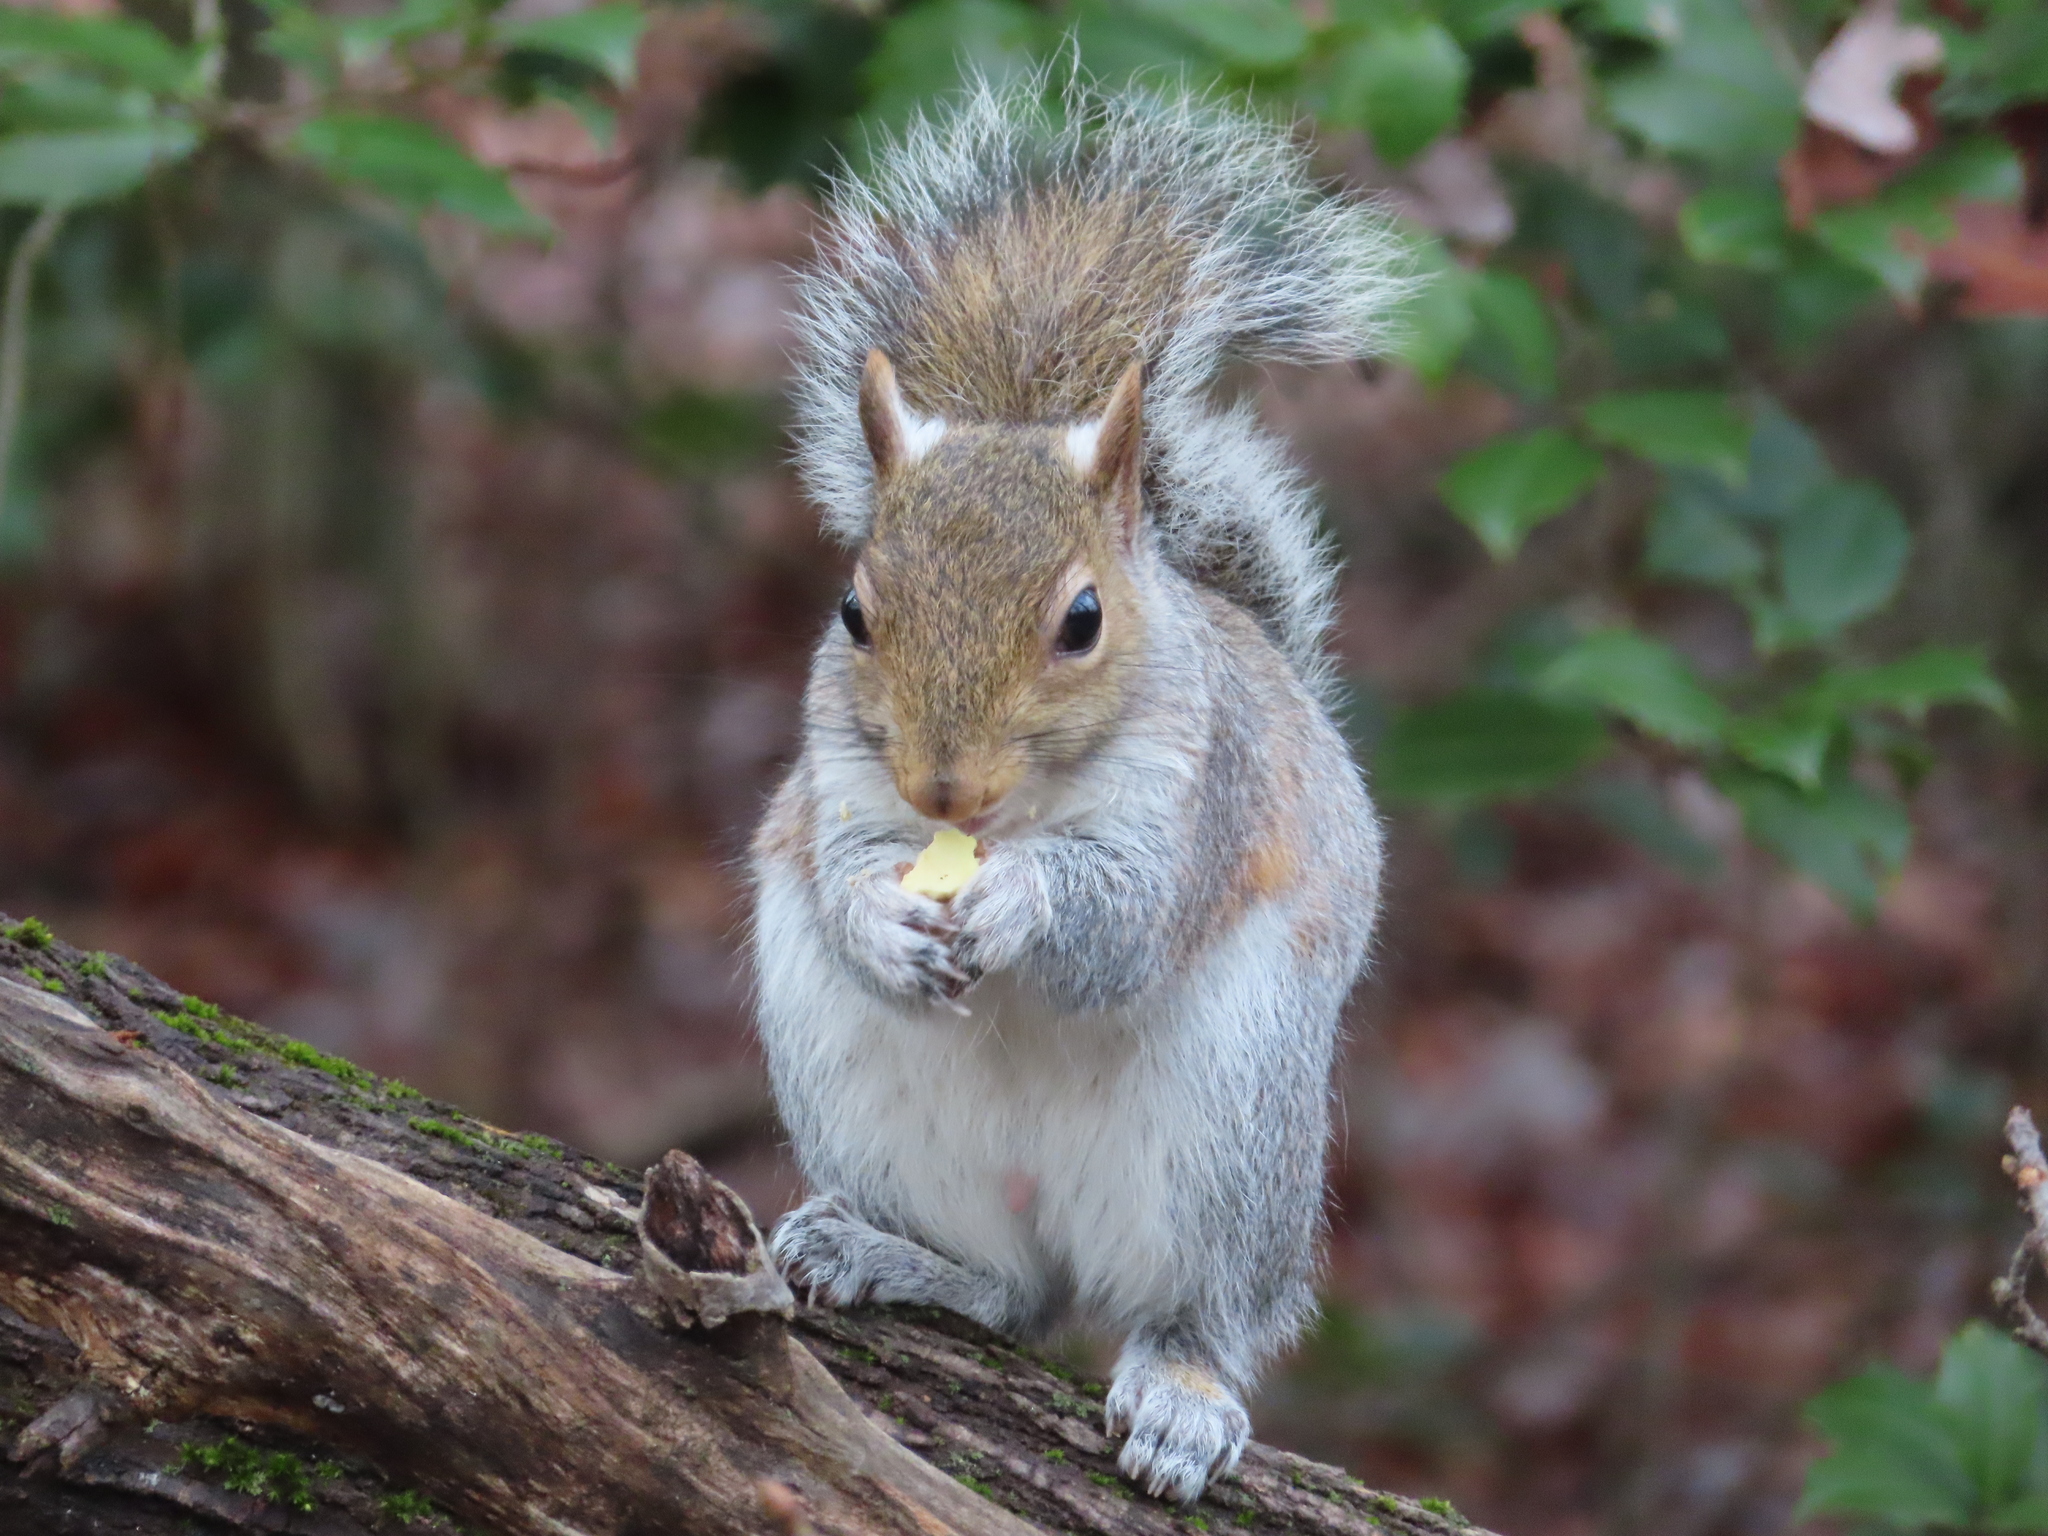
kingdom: Animalia
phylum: Chordata
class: Mammalia
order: Rodentia
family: Sciuridae
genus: Sciurus
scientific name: Sciurus carolinensis
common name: Eastern gray squirrel
